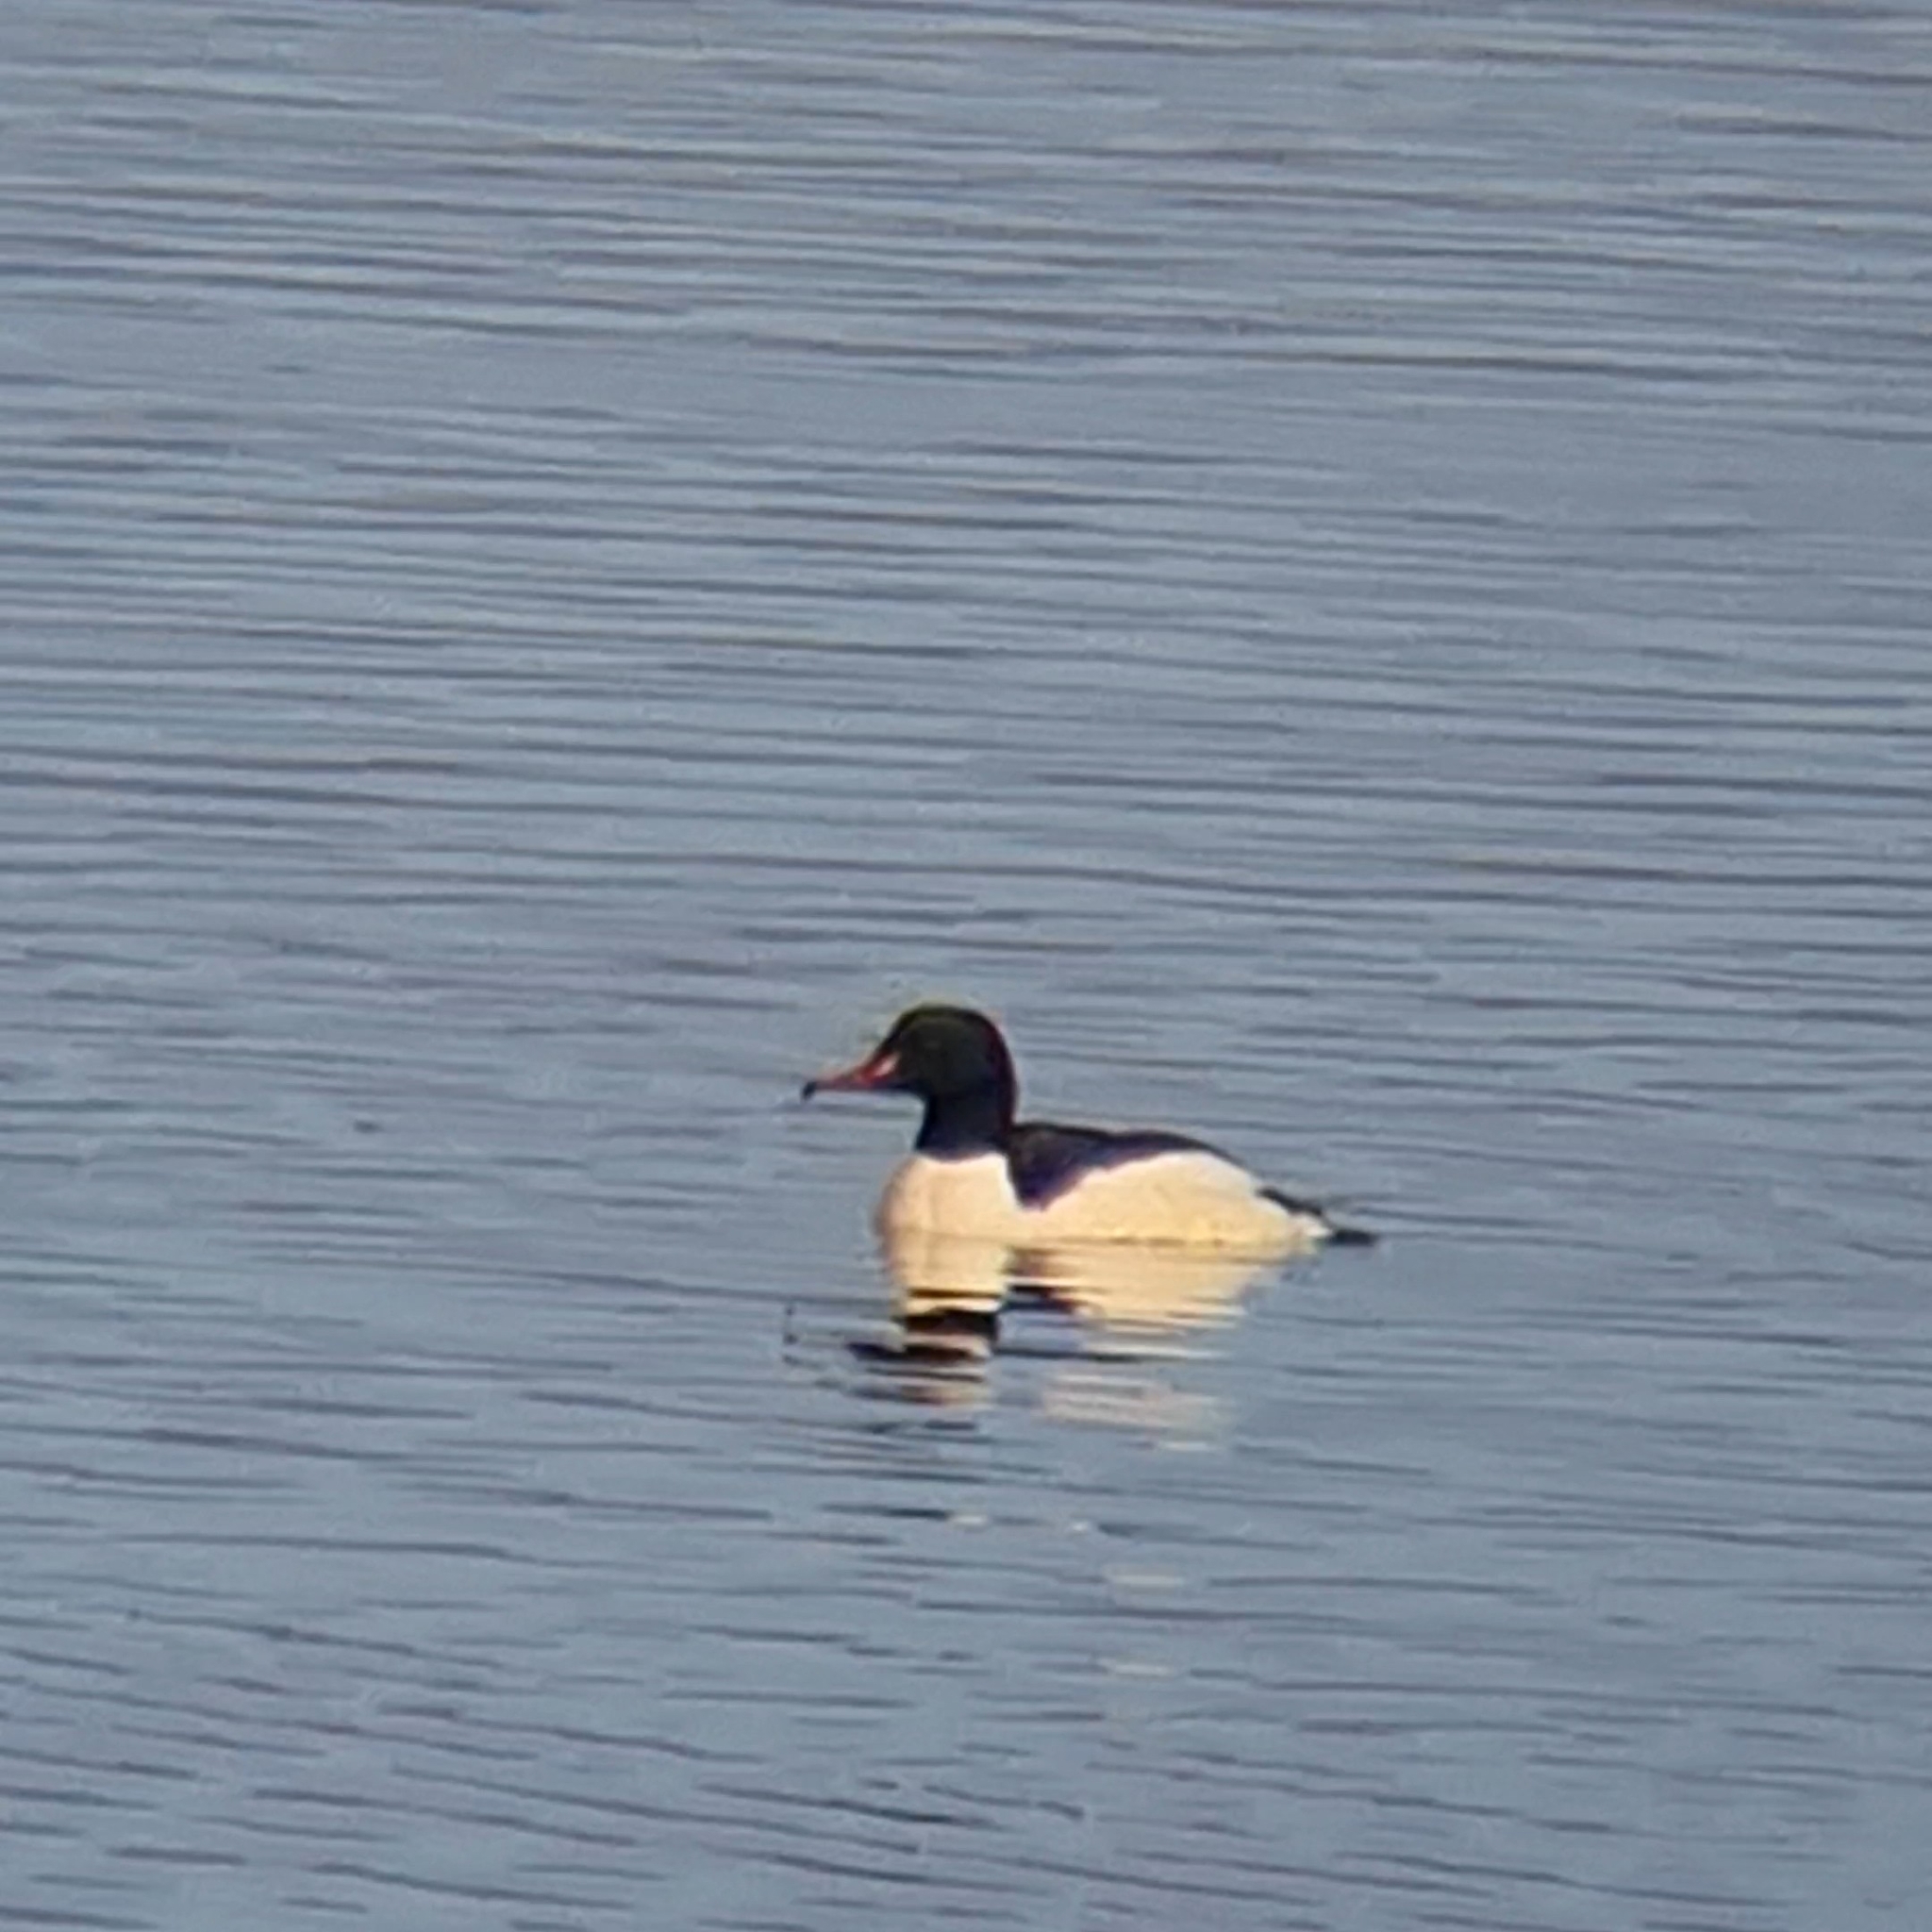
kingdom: Animalia
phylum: Chordata
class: Aves
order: Anseriformes
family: Anatidae
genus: Mergus
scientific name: Mergus merganser
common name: Common merganser
